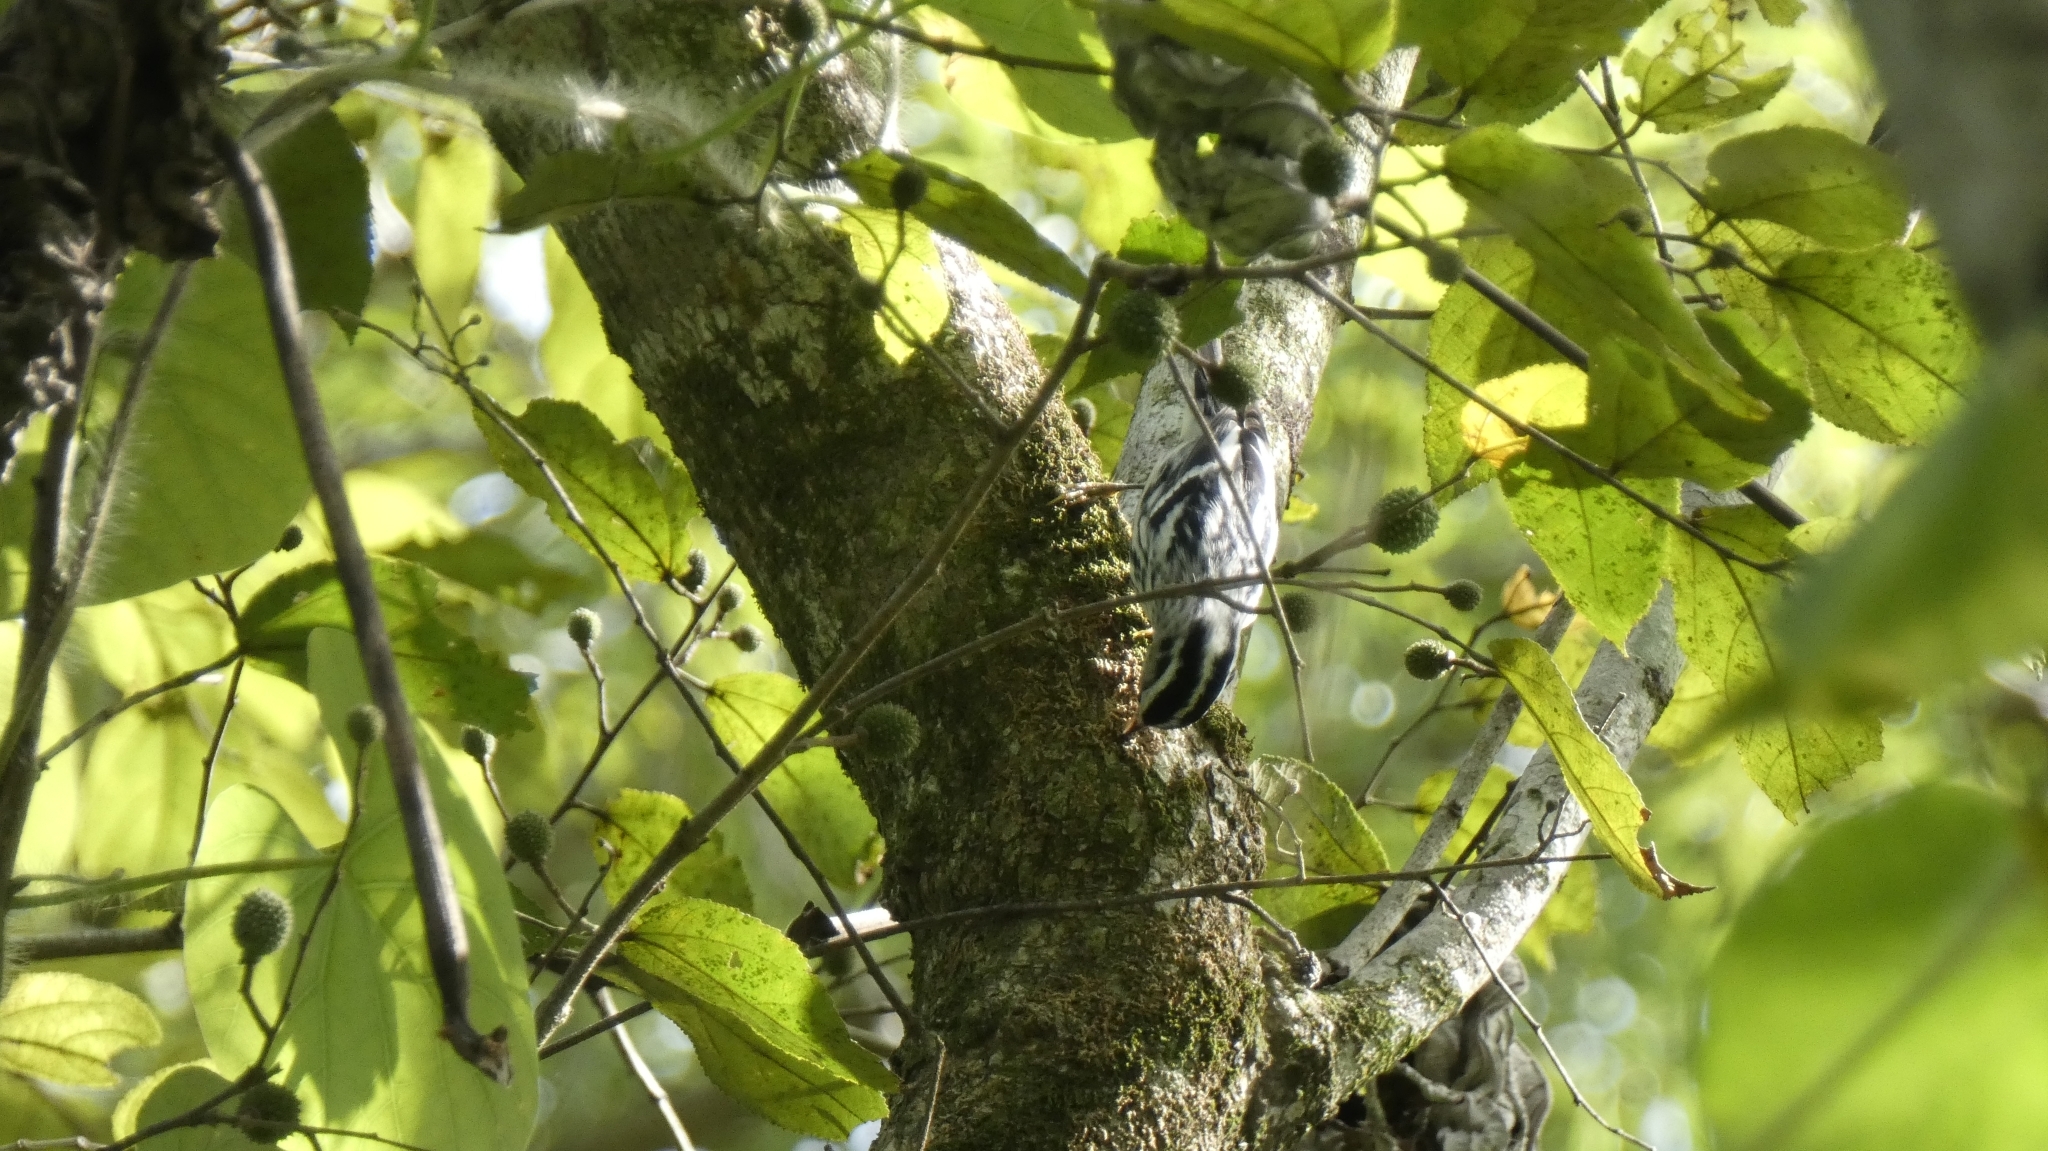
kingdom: Animalia
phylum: Chordata
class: Aves
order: Passeriformes
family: Parulidae
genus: Mniotilta
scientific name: Mniotilta varia
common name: Black-and-white warbler
